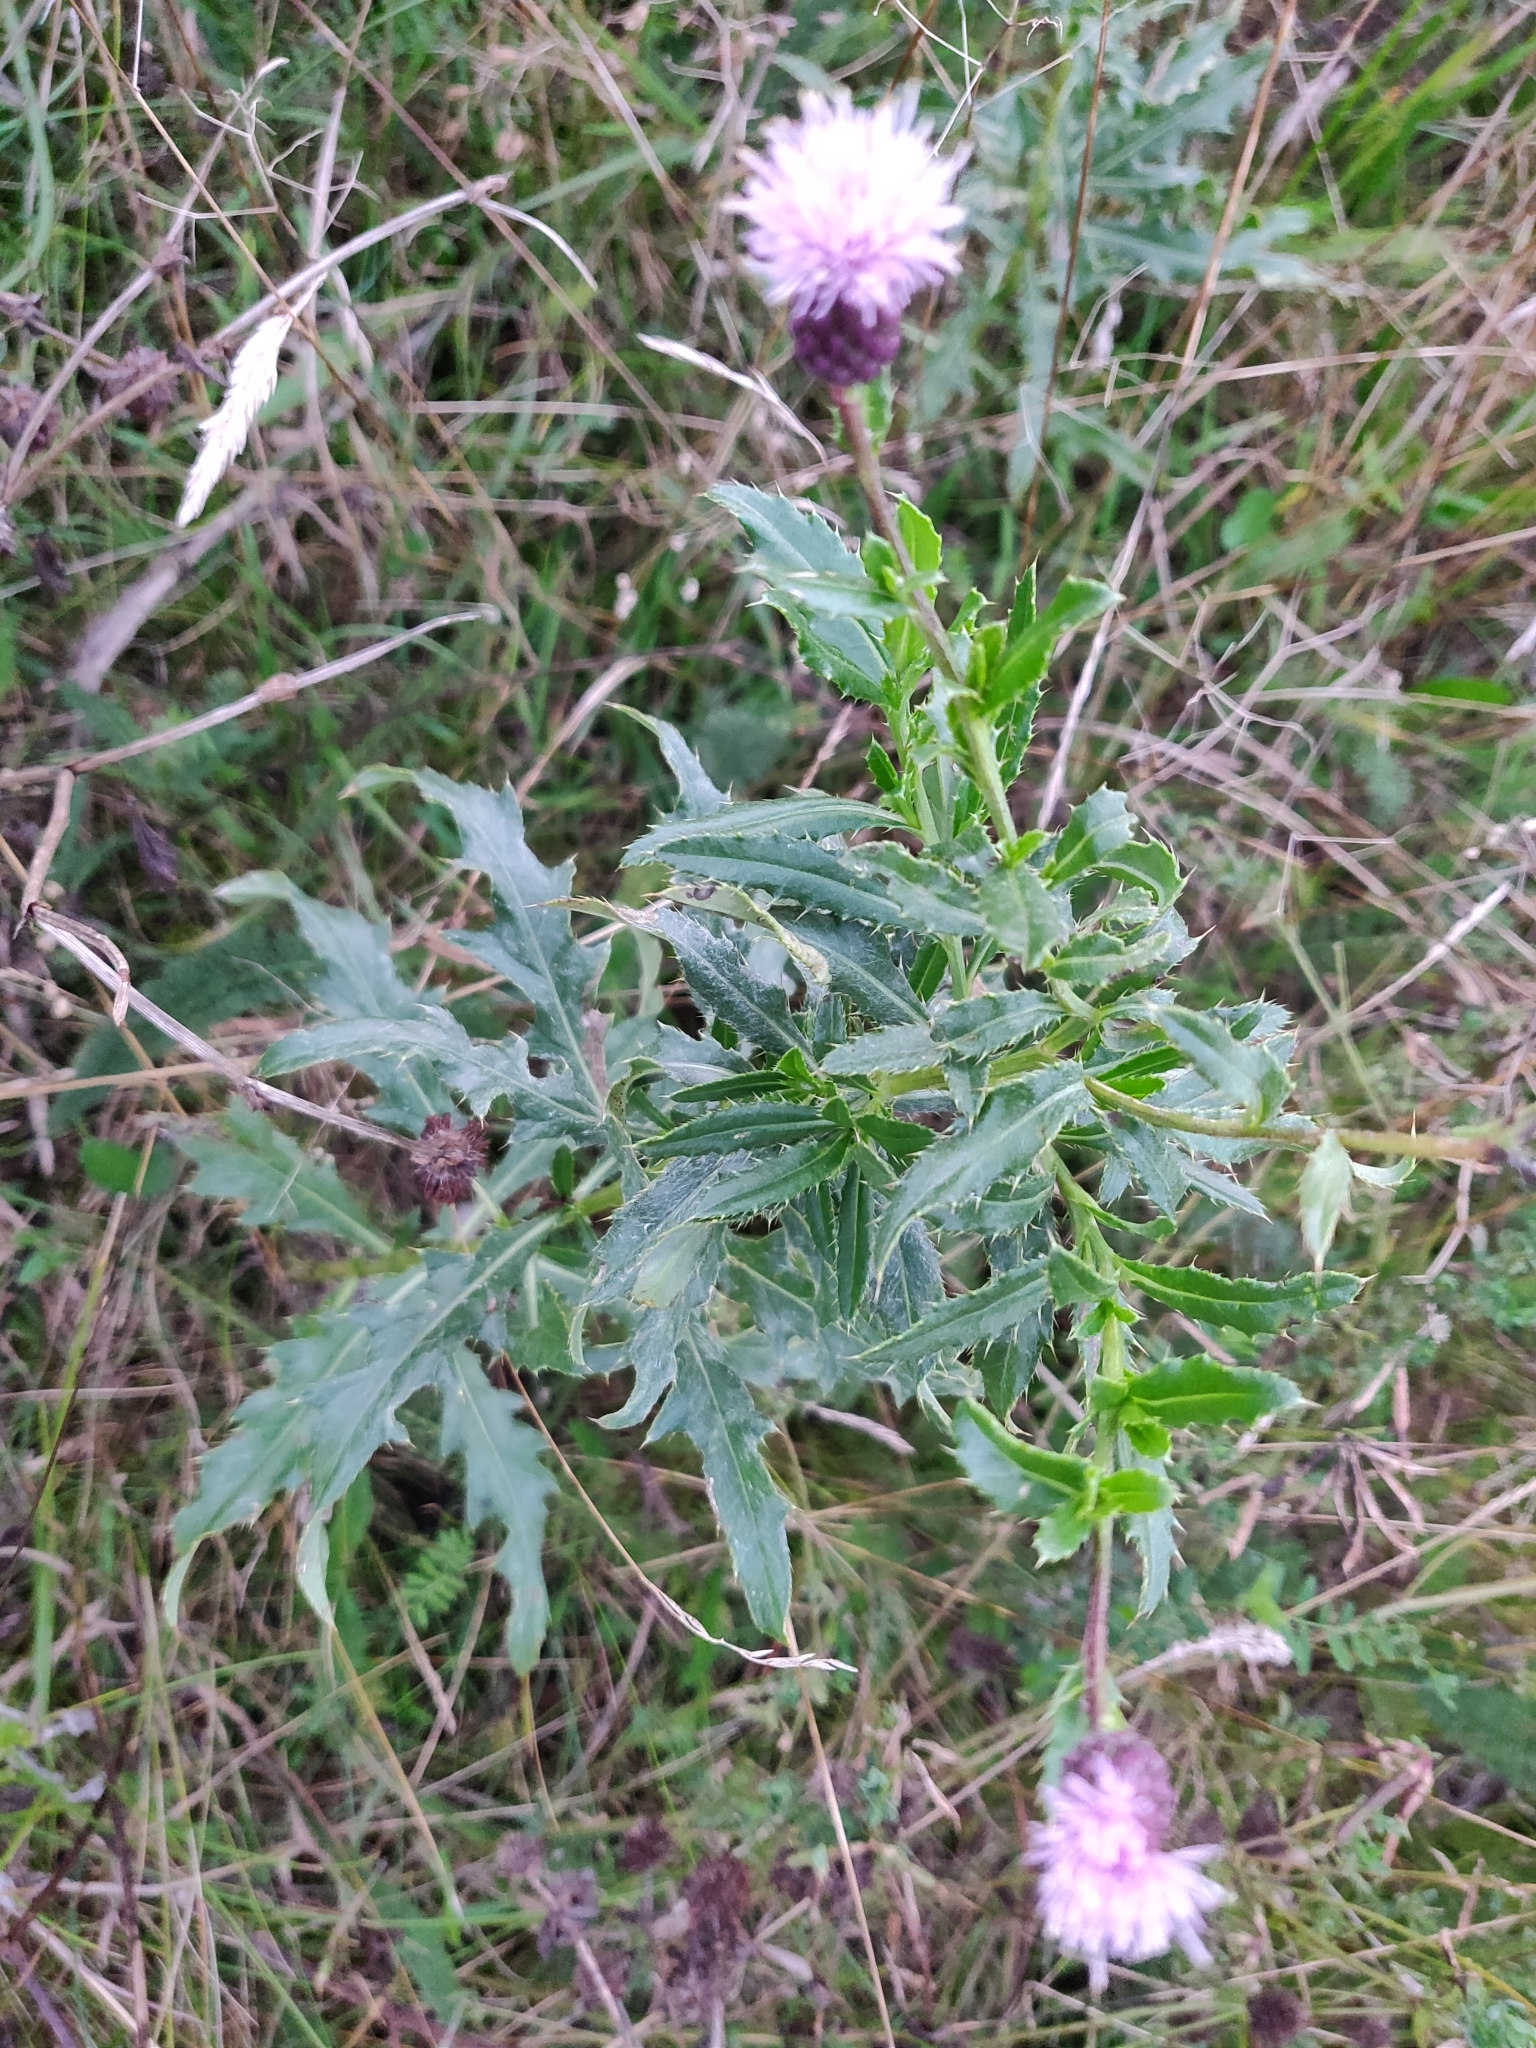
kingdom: Plantae
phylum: Tracheophyta
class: Magnoliopsida
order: Asterales
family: Asteraceae
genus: Cirsium
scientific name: Cirsium arvense
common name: Creeping thistle
